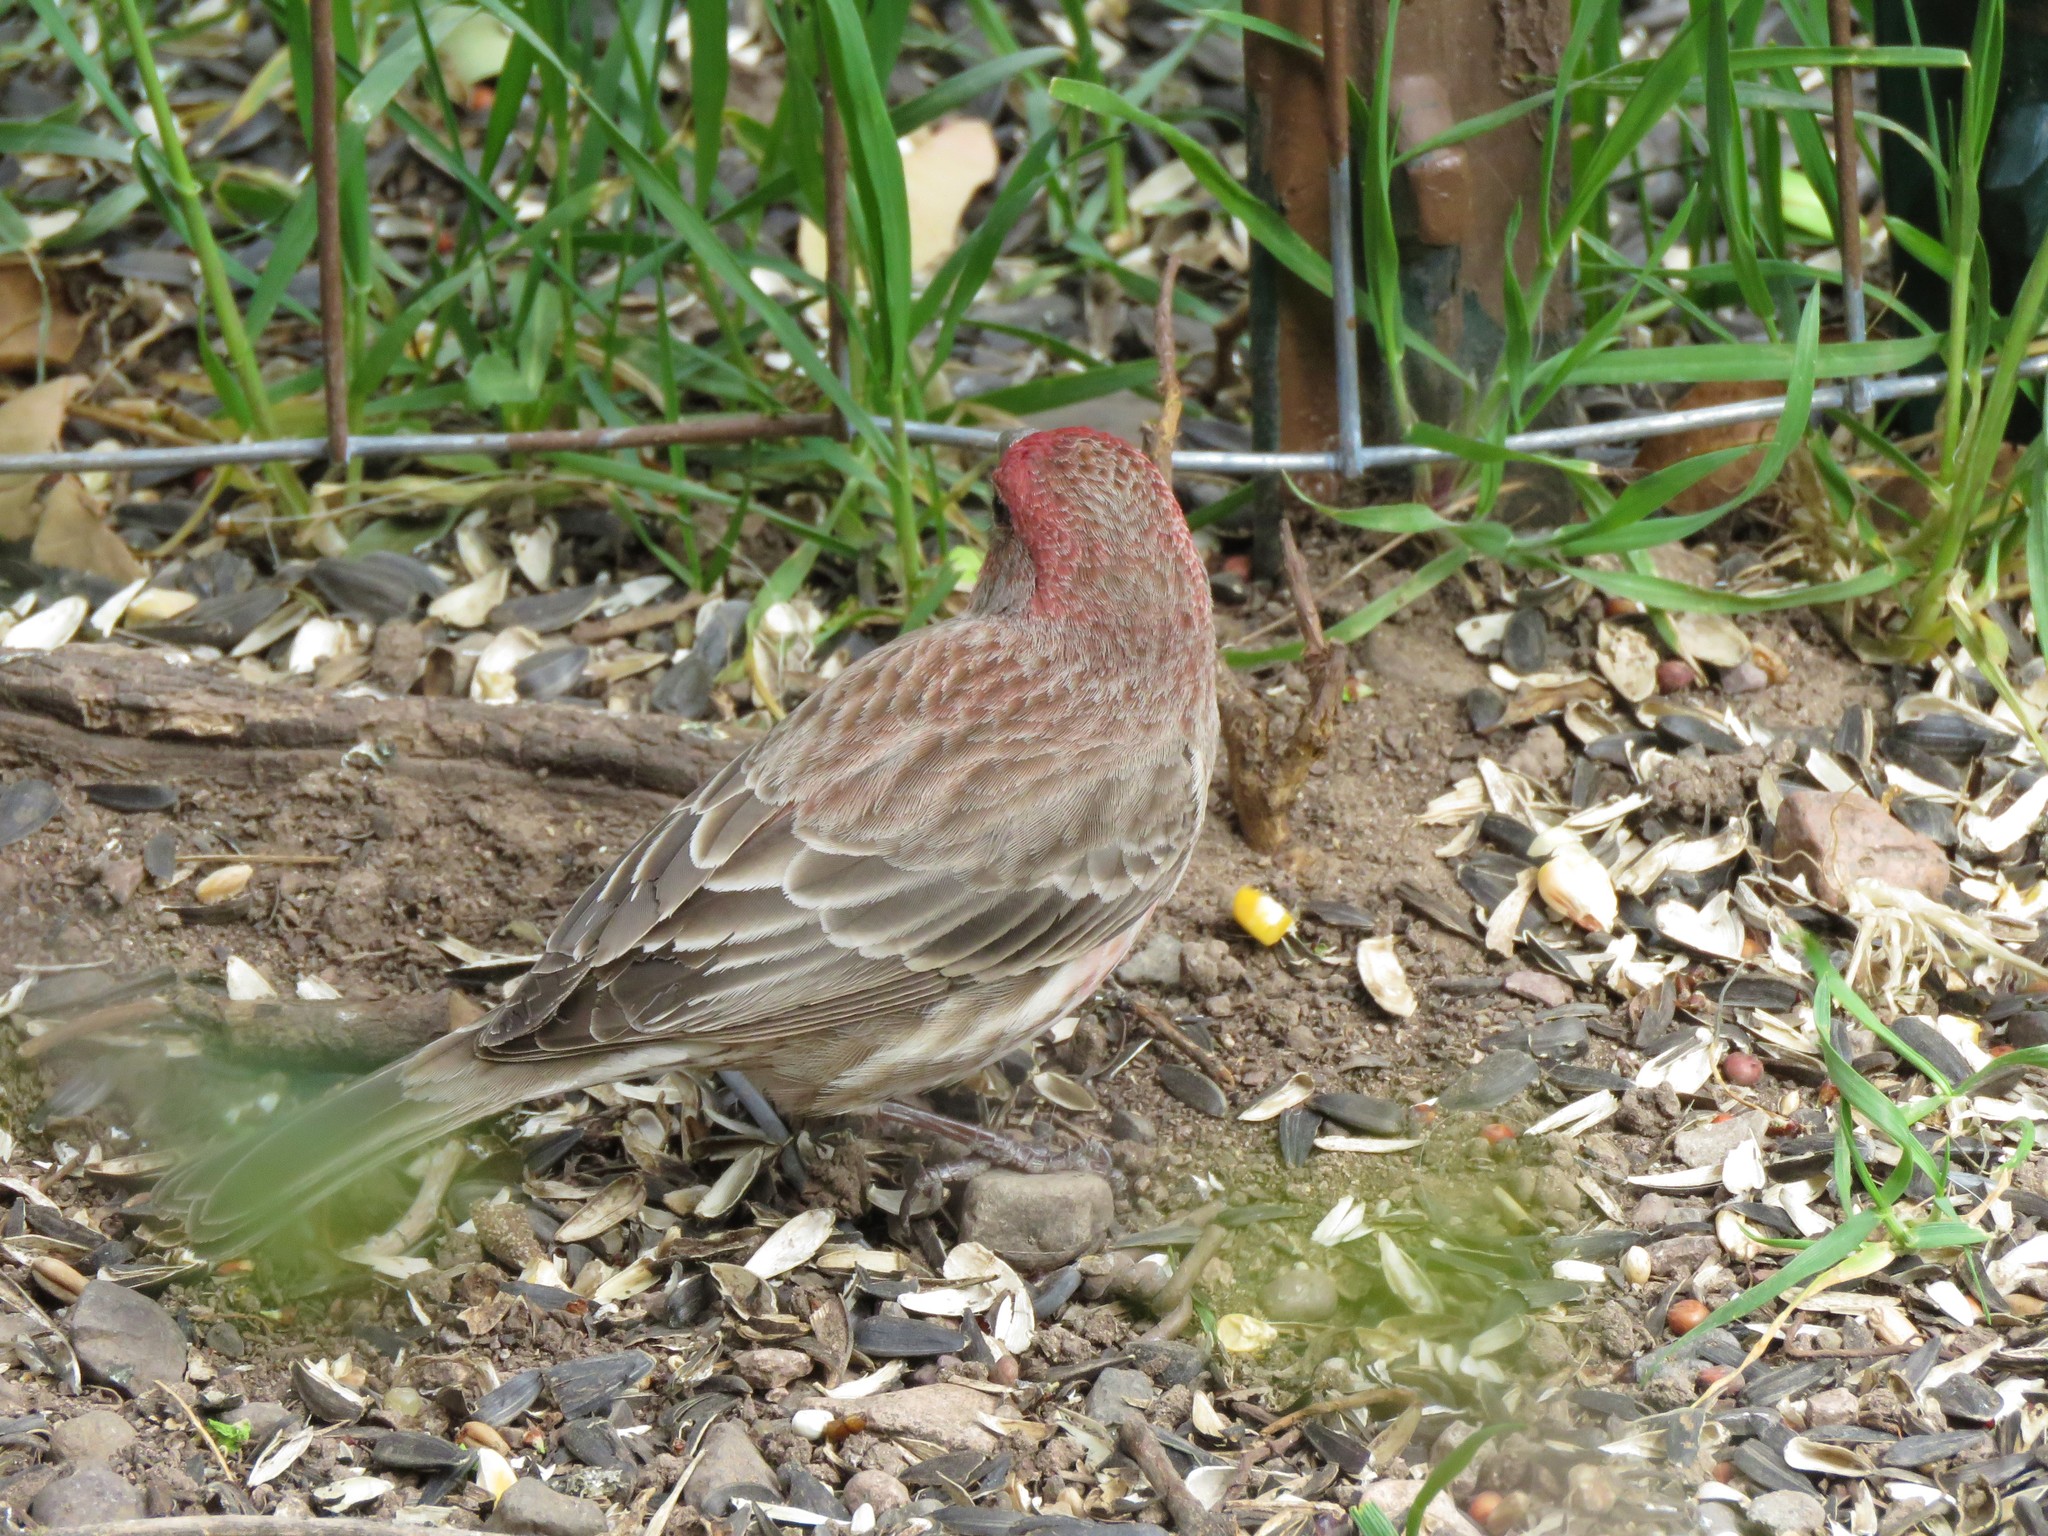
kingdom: Animalia
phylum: Chordata
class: Aves
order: Passeriformes
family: Fringillidae
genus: Haemorhous
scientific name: Haemorhous mexicanus
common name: House finch
